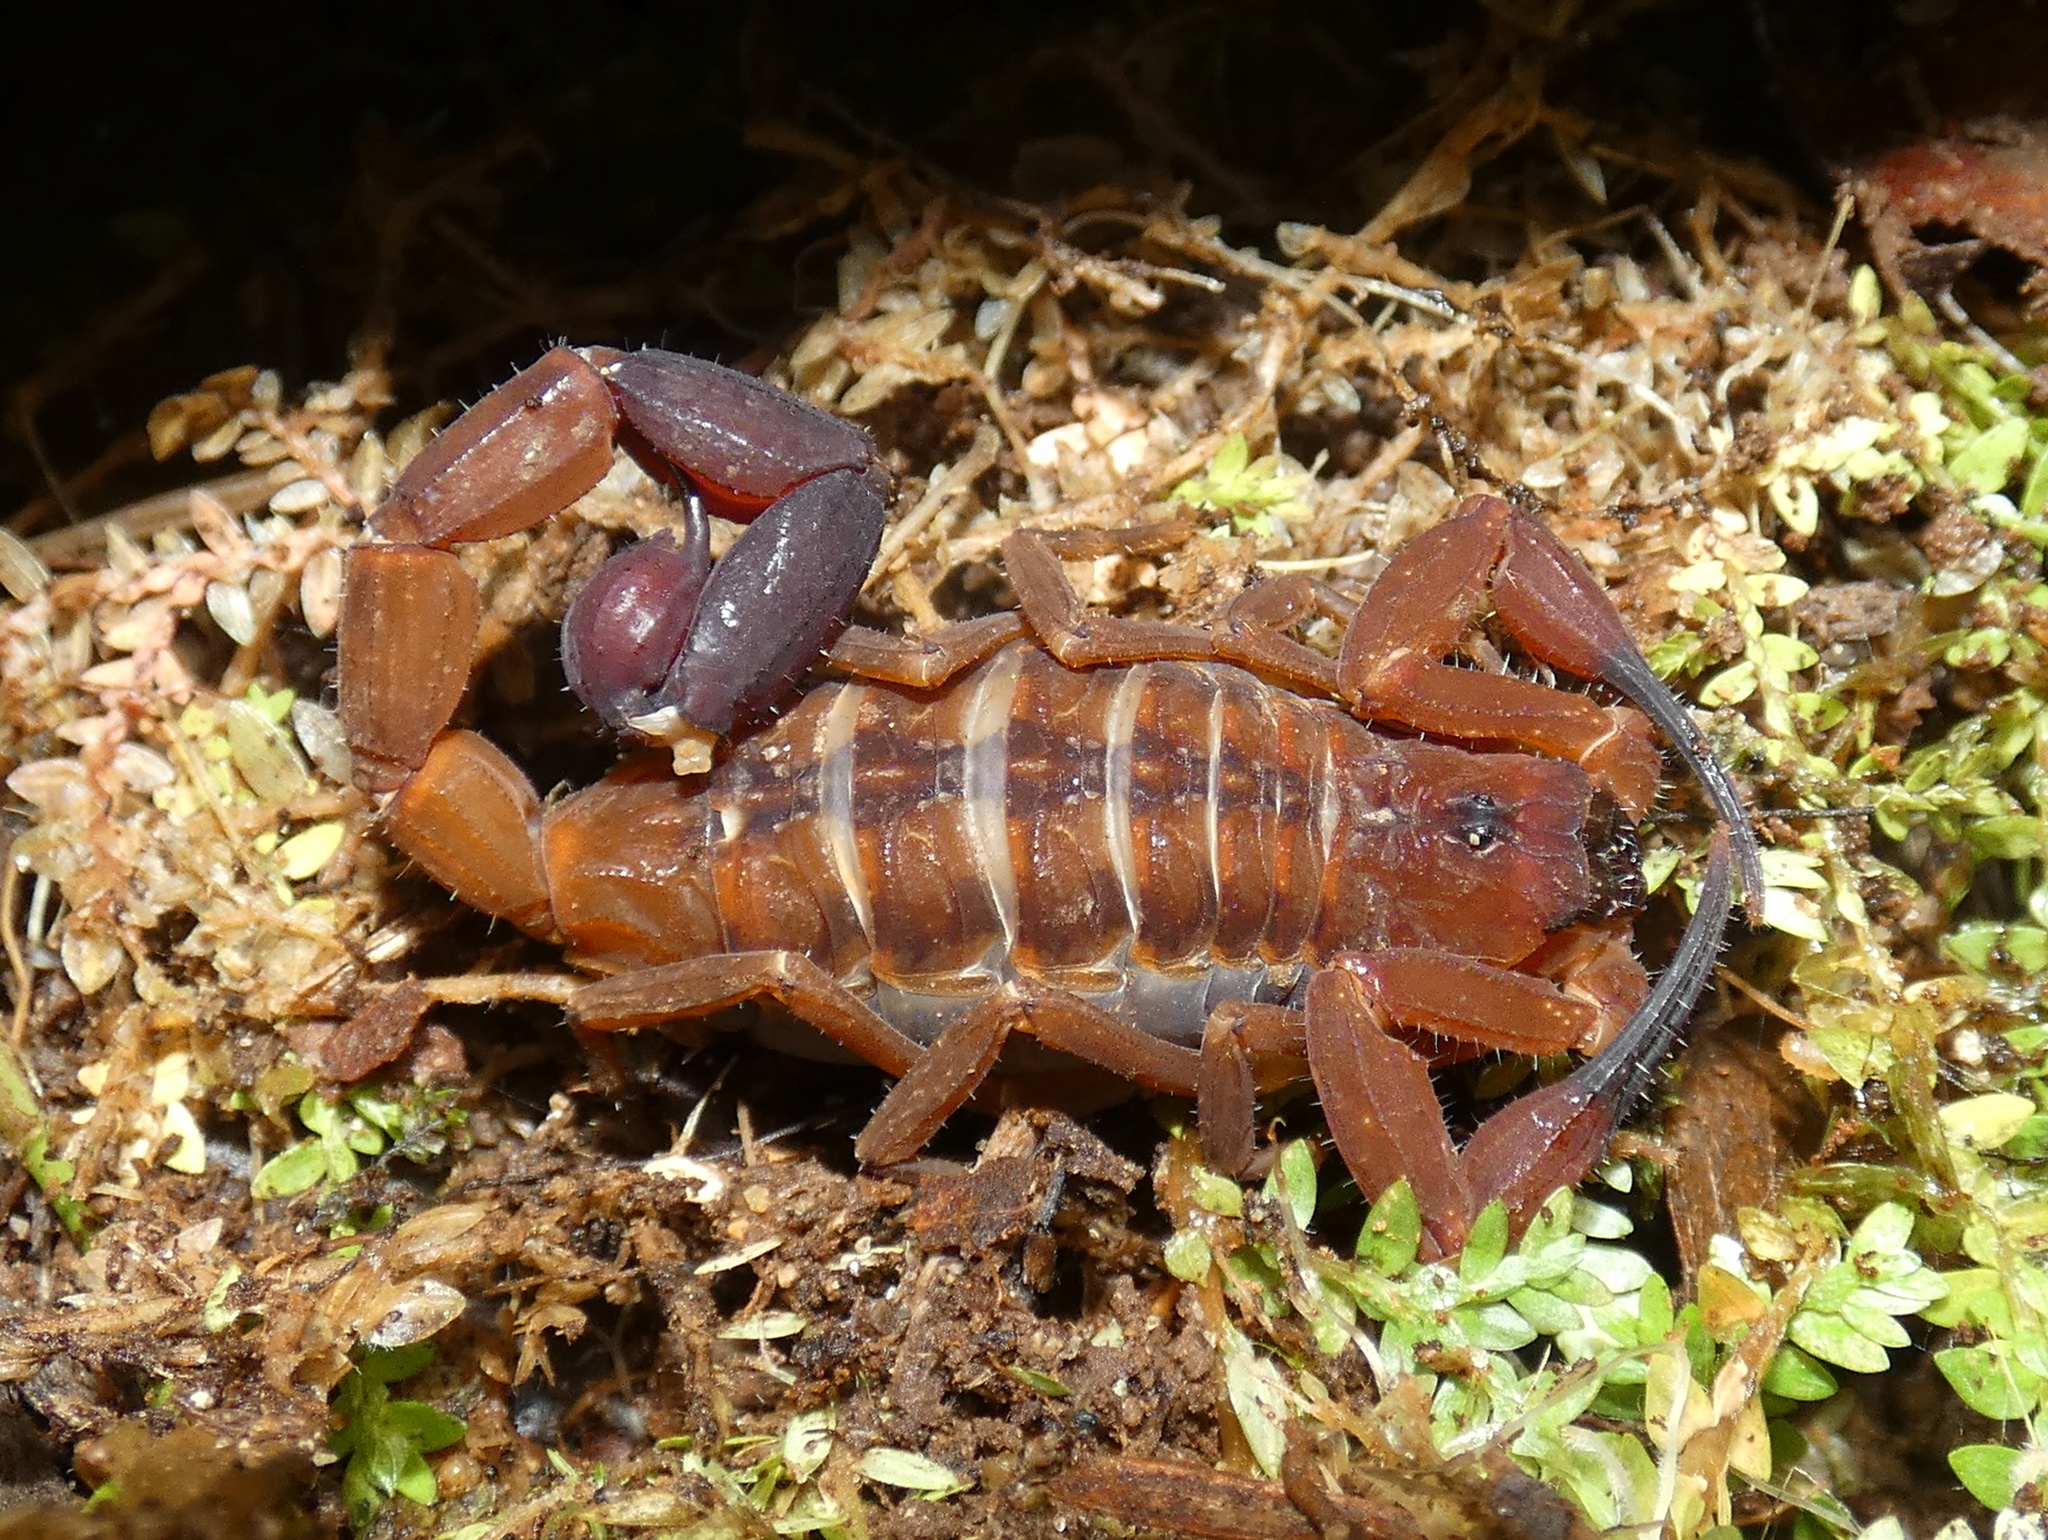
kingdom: Animalia
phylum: Arthropoda
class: Arachnida
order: Scorpiones
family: Buthidae
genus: Tityus
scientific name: Tityus cerroazul
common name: Scorpions
